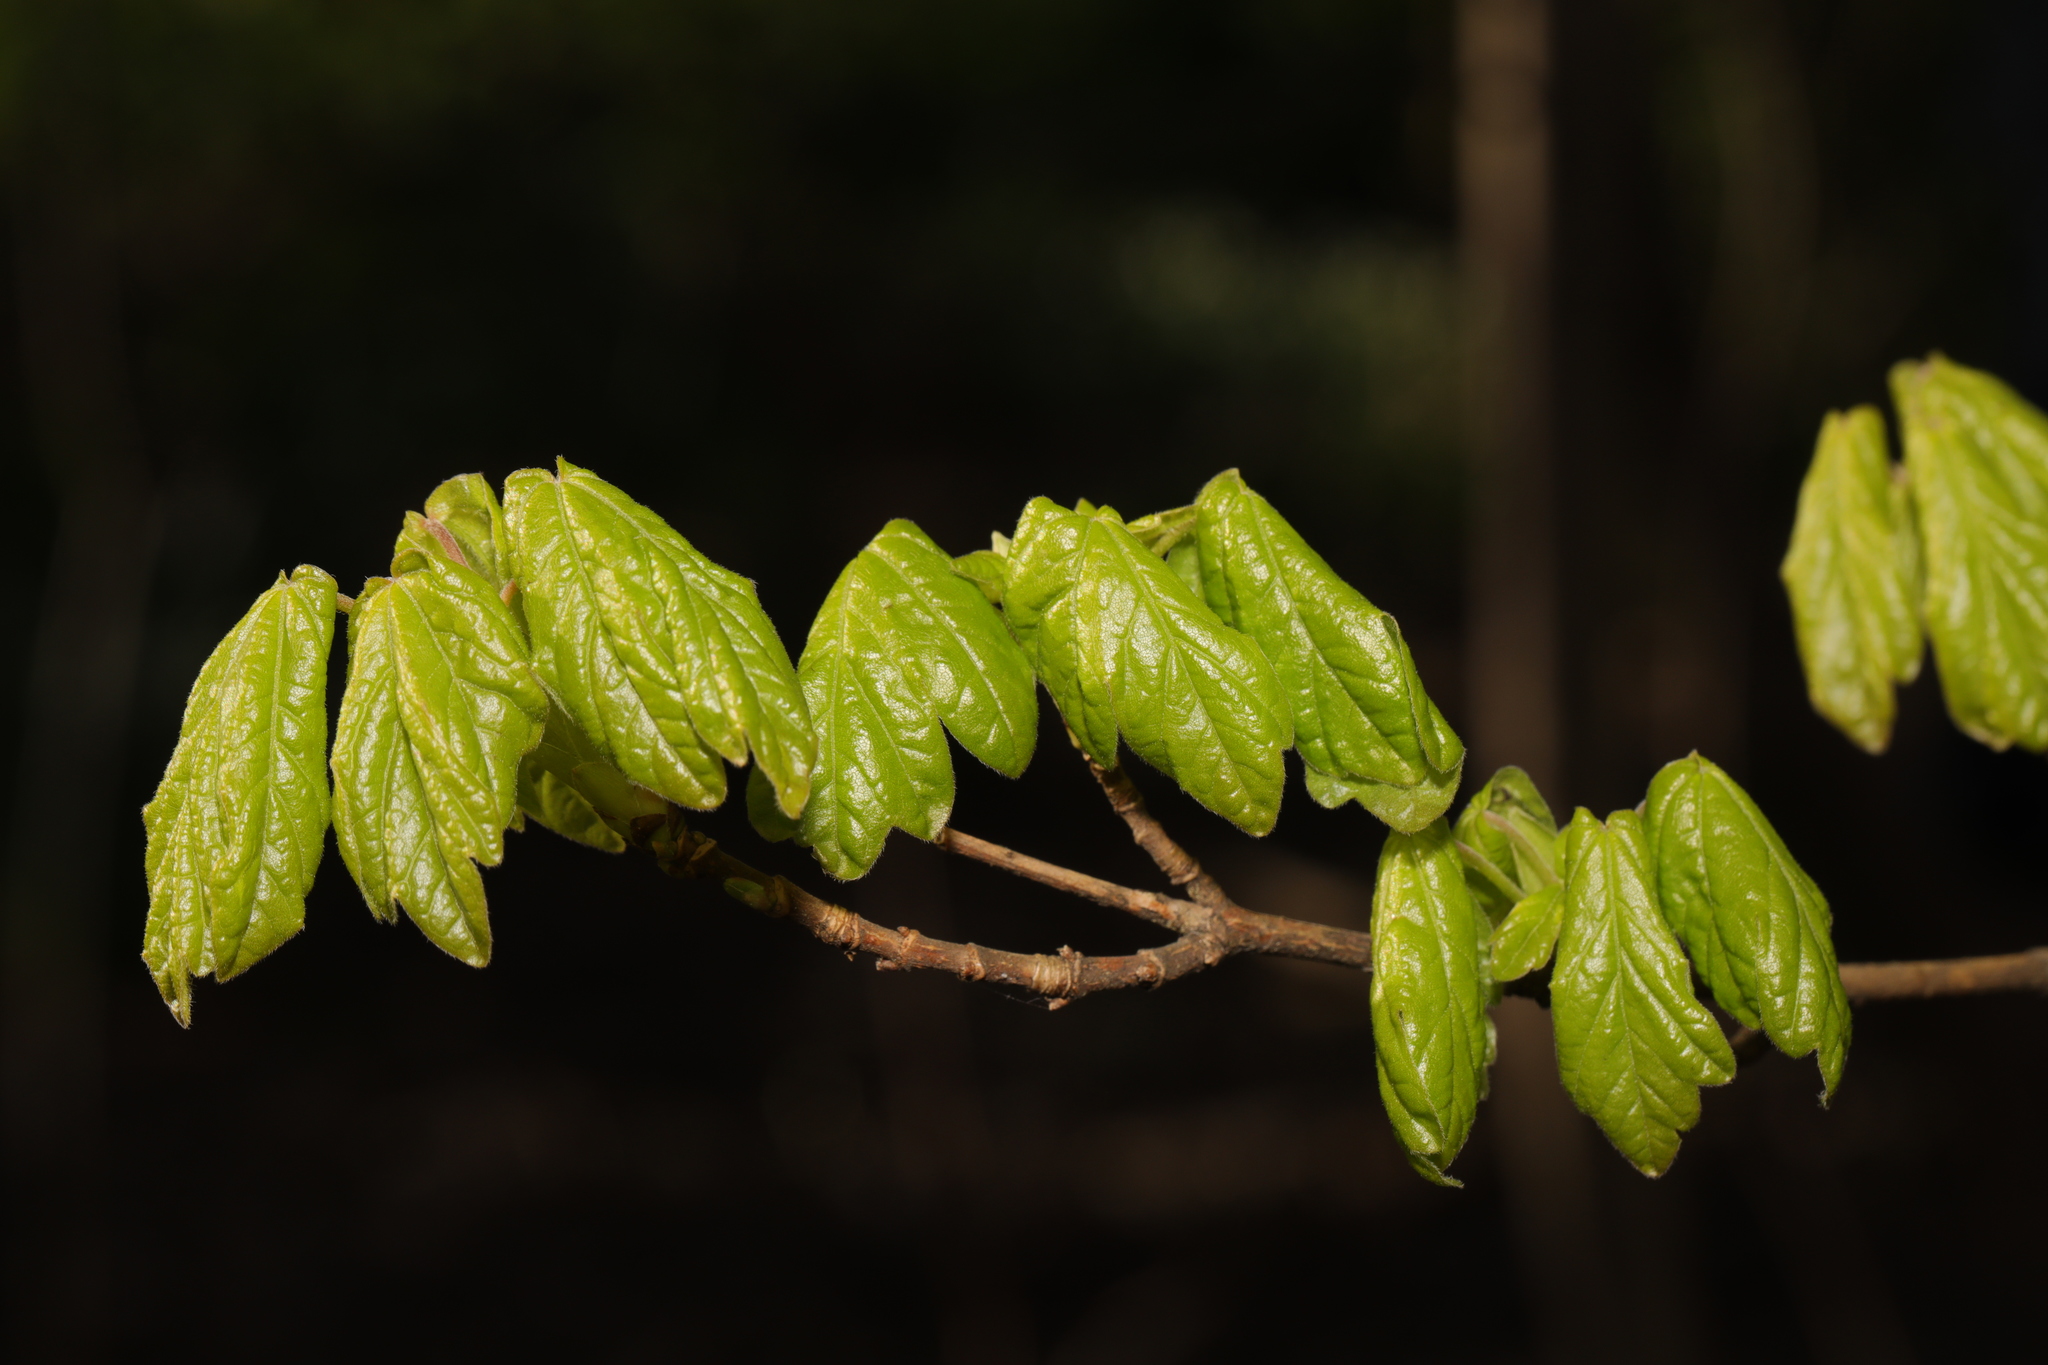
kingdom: Plantae
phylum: Tracheophyta
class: Magnoliopsida
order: Sapindales
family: Sapindaceae
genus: Acer
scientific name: Acer campestre
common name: Field maple
